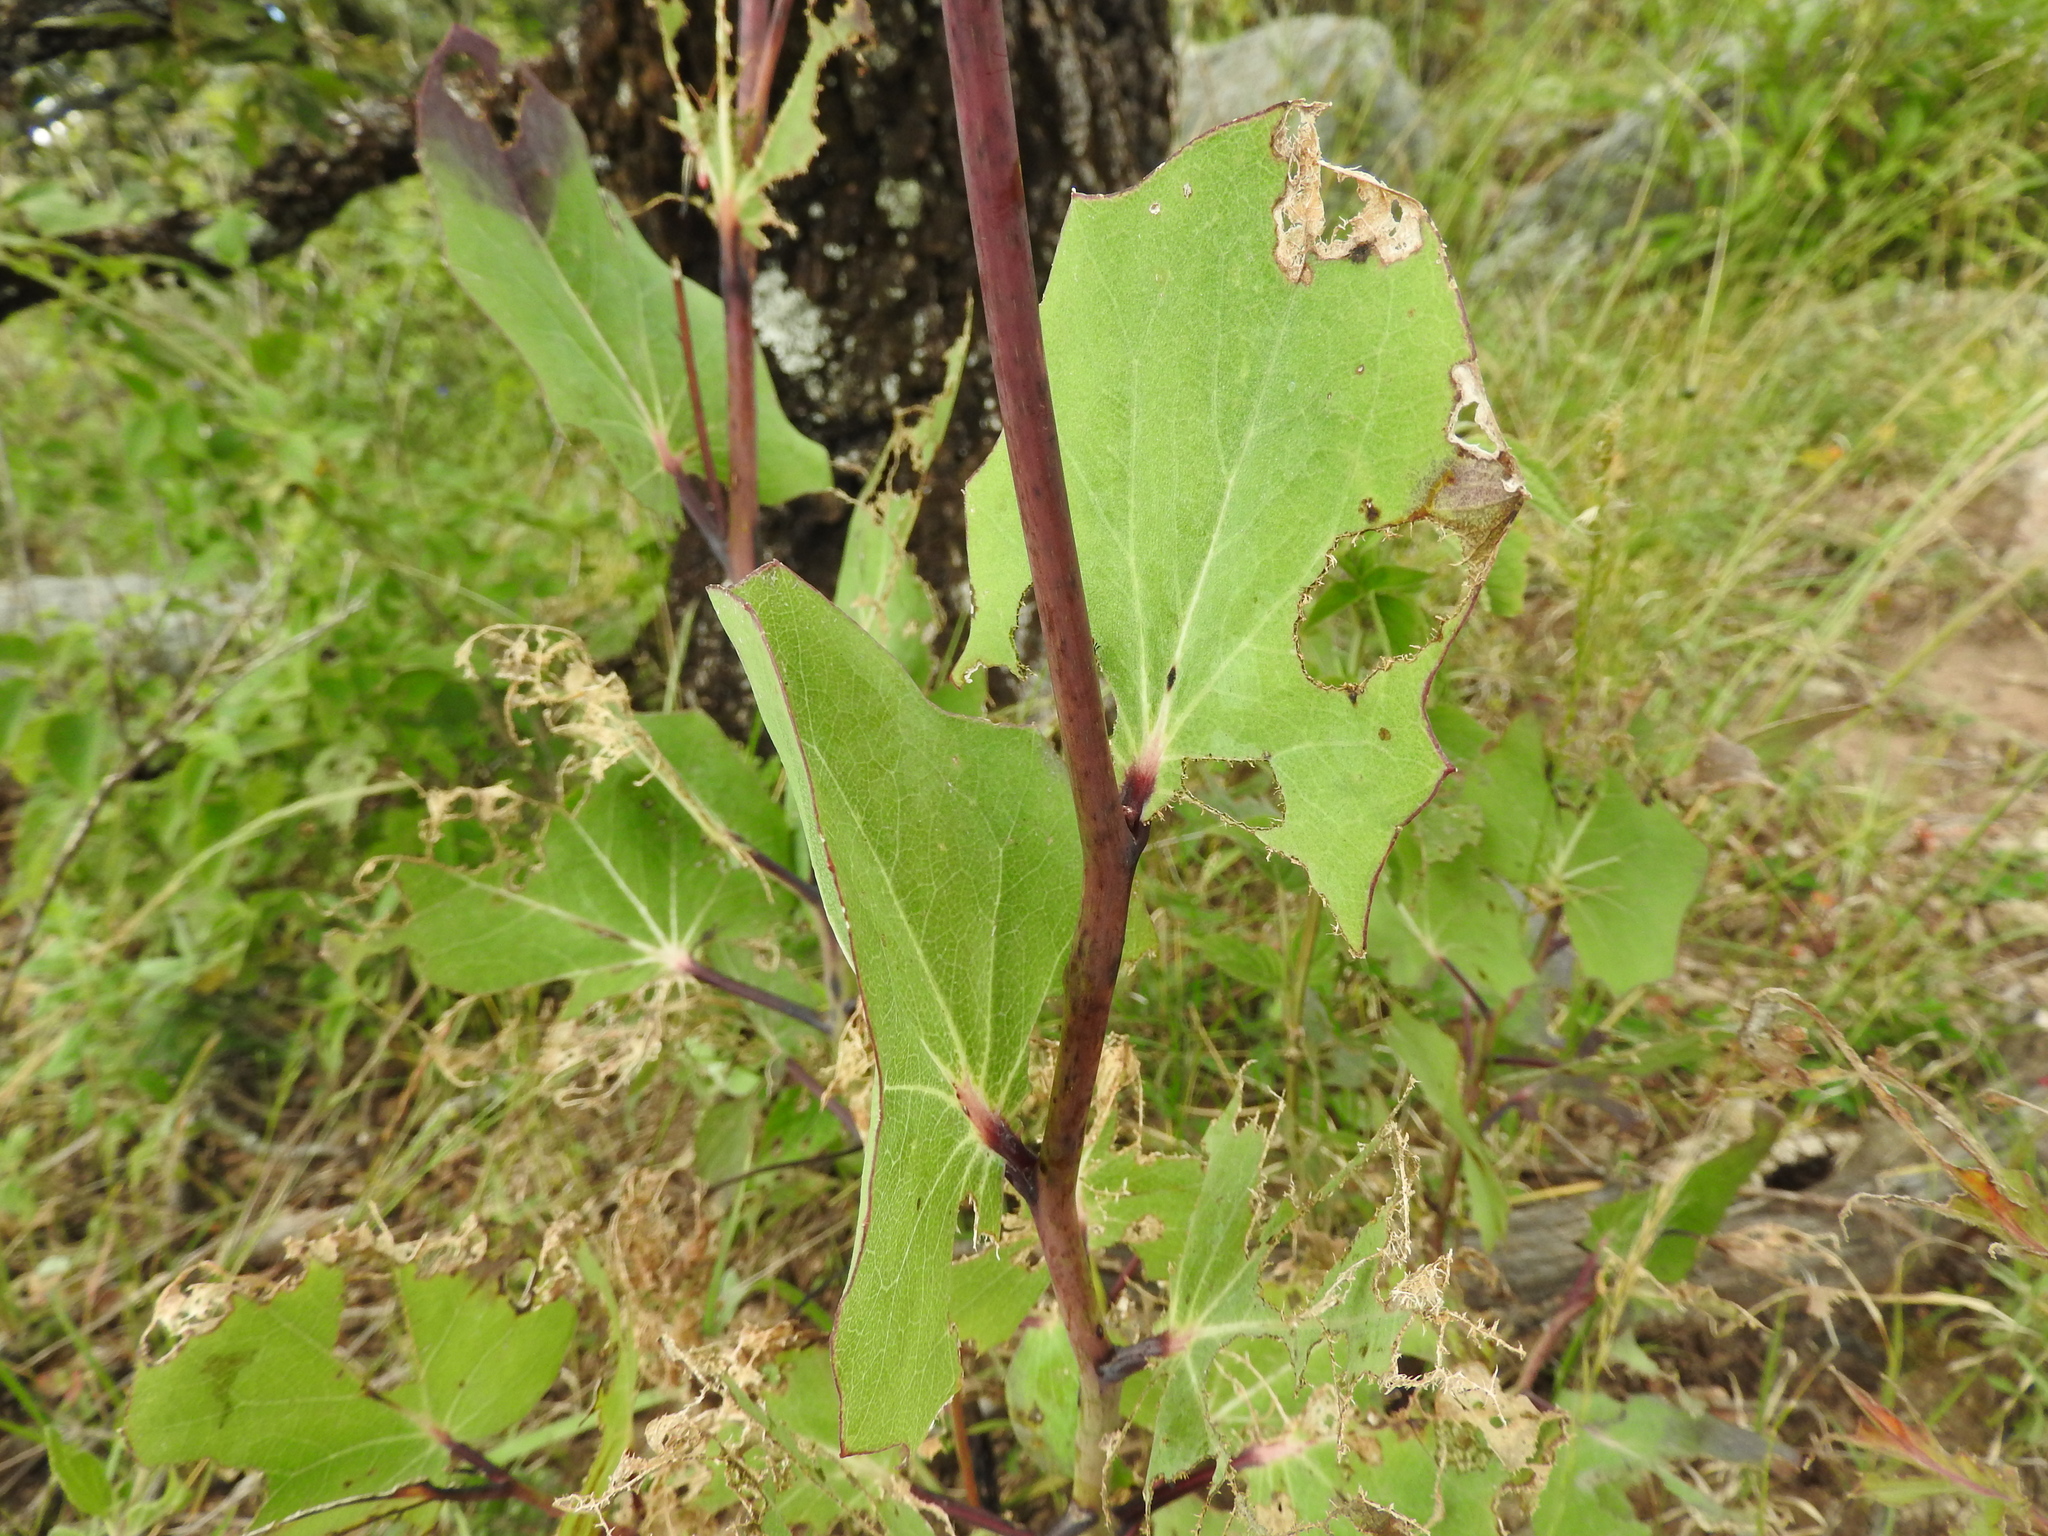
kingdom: Plantae
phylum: Tracheophyta
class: Magnoliopsida
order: Asterales
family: Asteraceae
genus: Roldana
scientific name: Roldana sessilifolia
